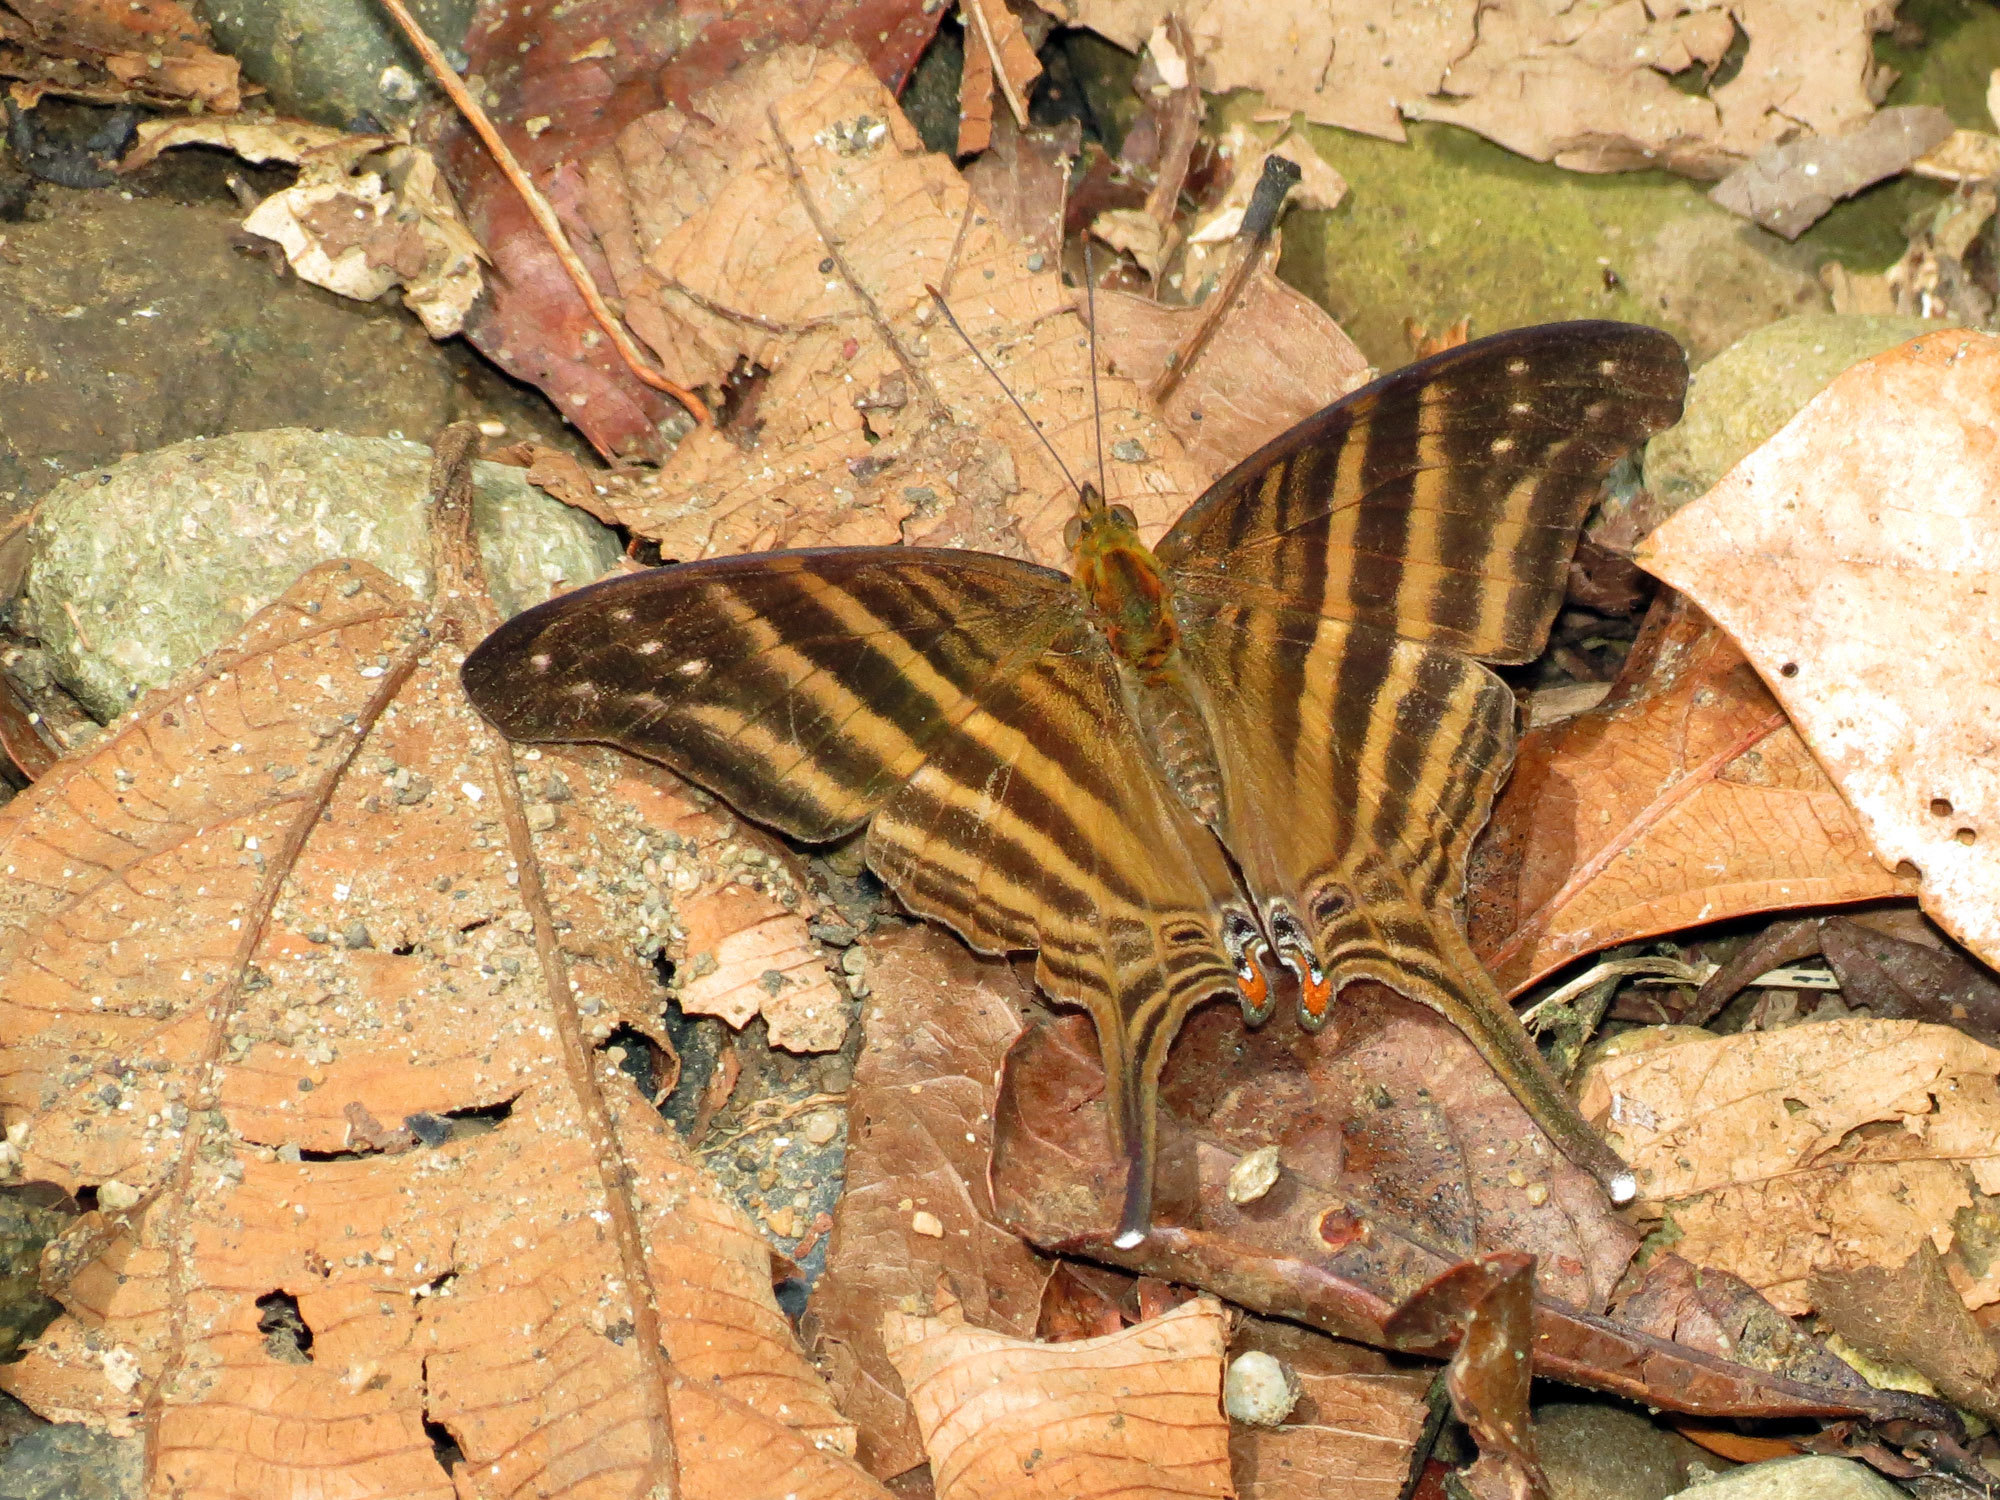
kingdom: Animalia
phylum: Arthropoda
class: Insecta
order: Lepidoptera
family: Nymphalidae
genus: Marpesia
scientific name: Marpesia chiron
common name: Many-banded daggerwing
